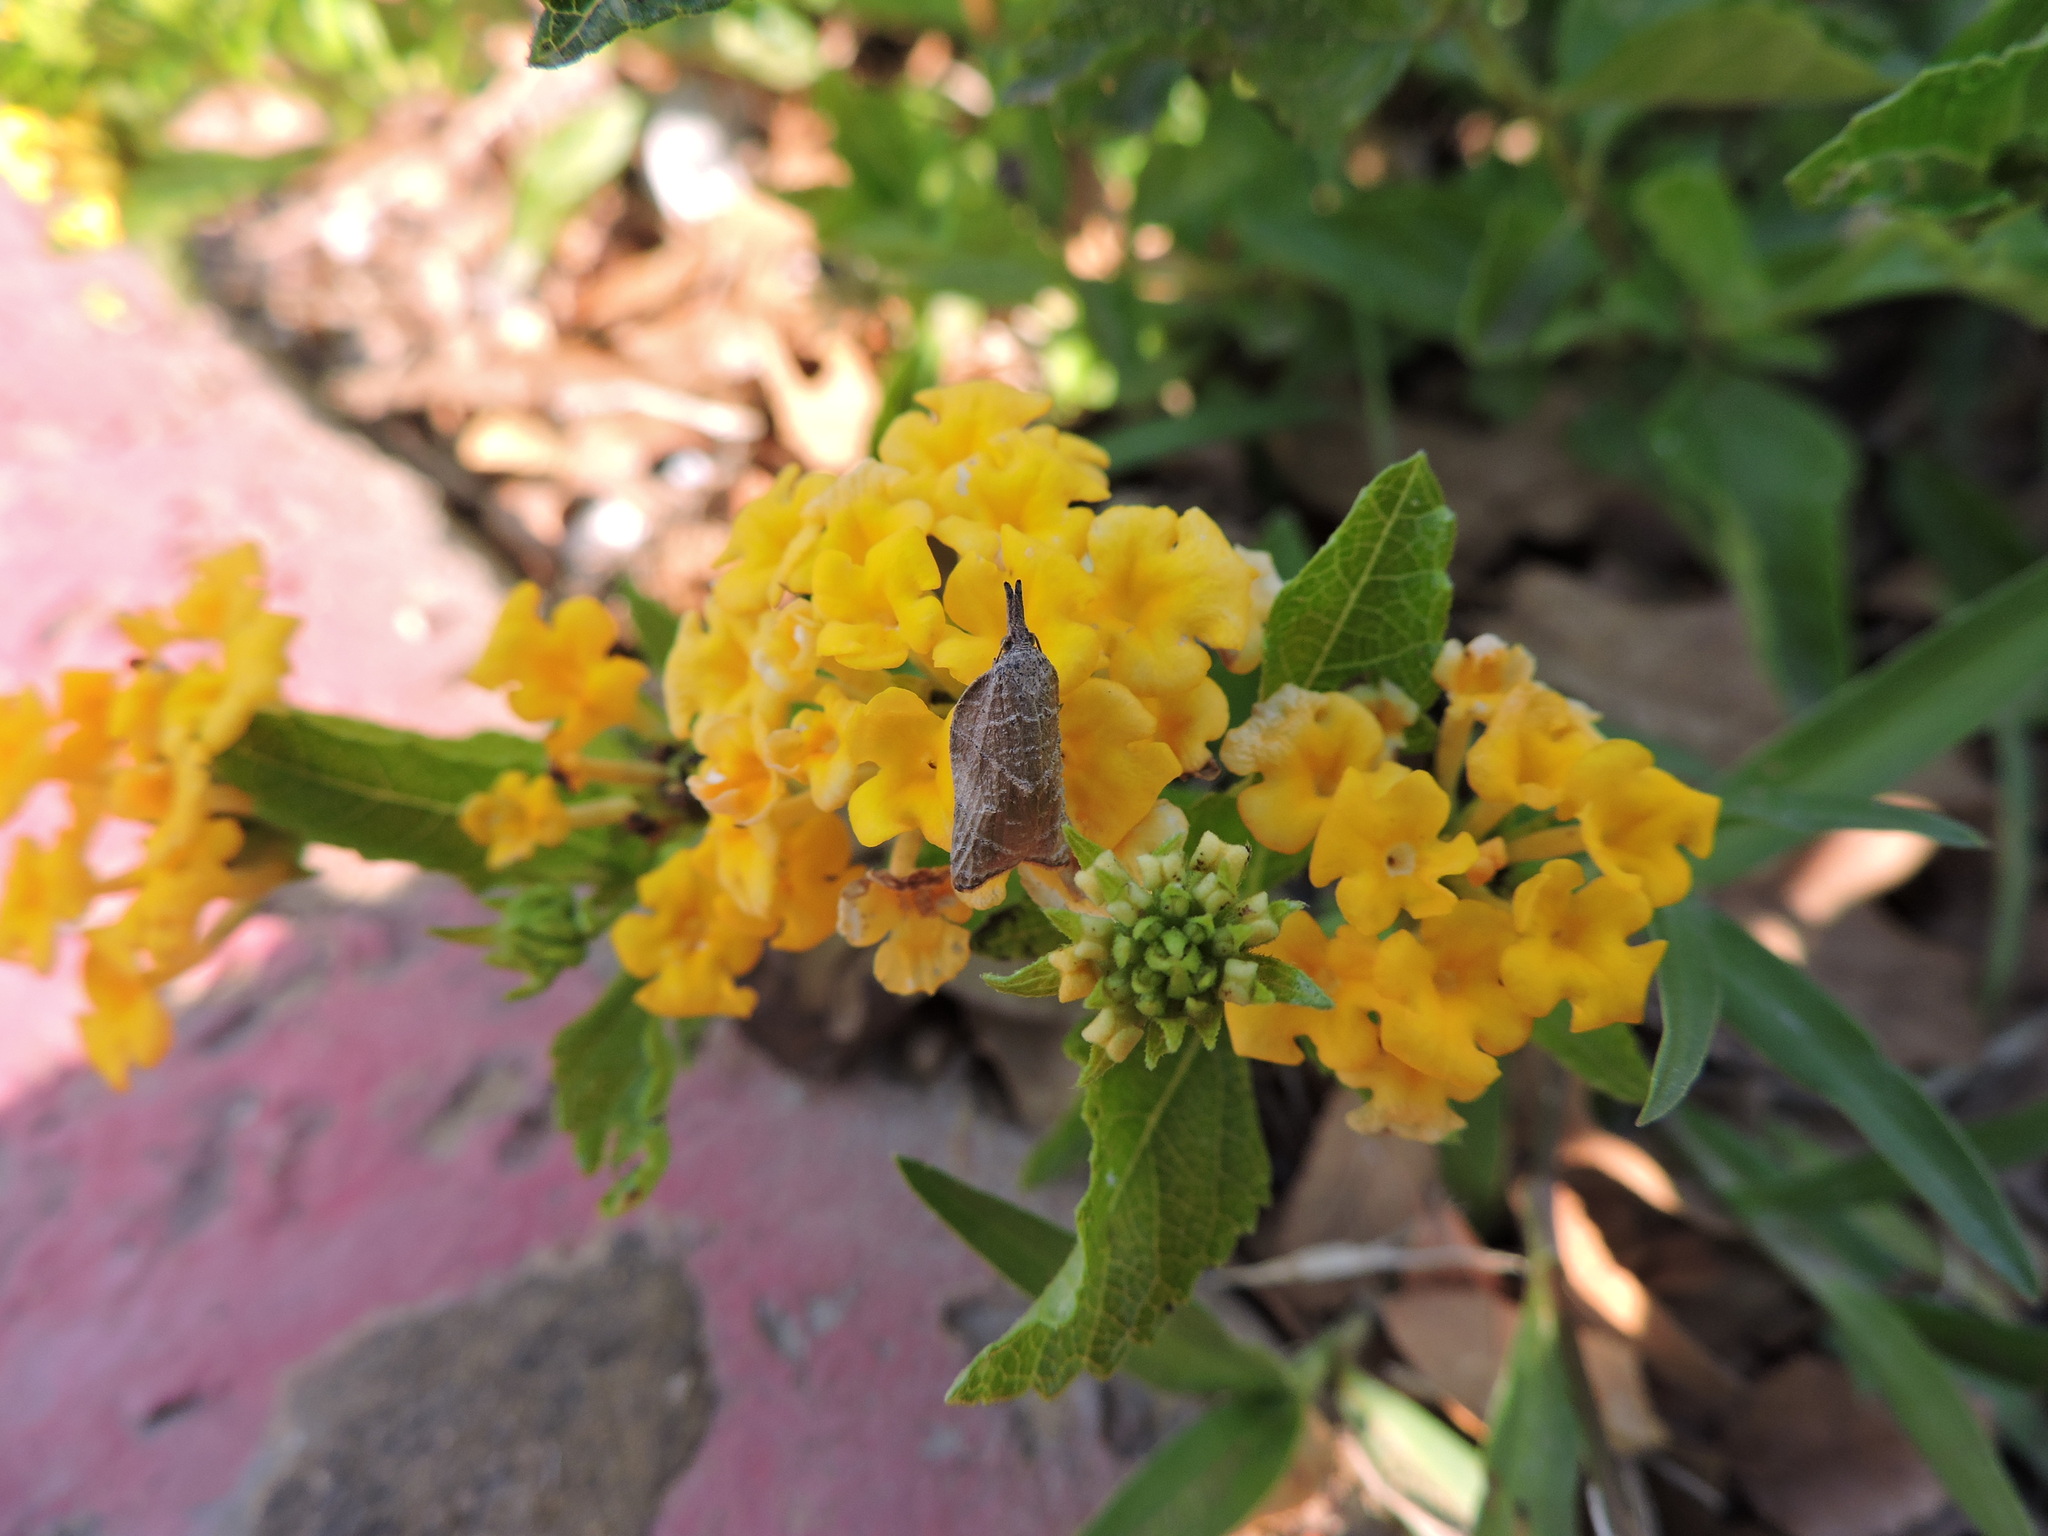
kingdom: Animalia
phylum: Arthropoda
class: Insecta
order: Lepidoptera
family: Tortricidae
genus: Platynota
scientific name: Platynota rostrana
